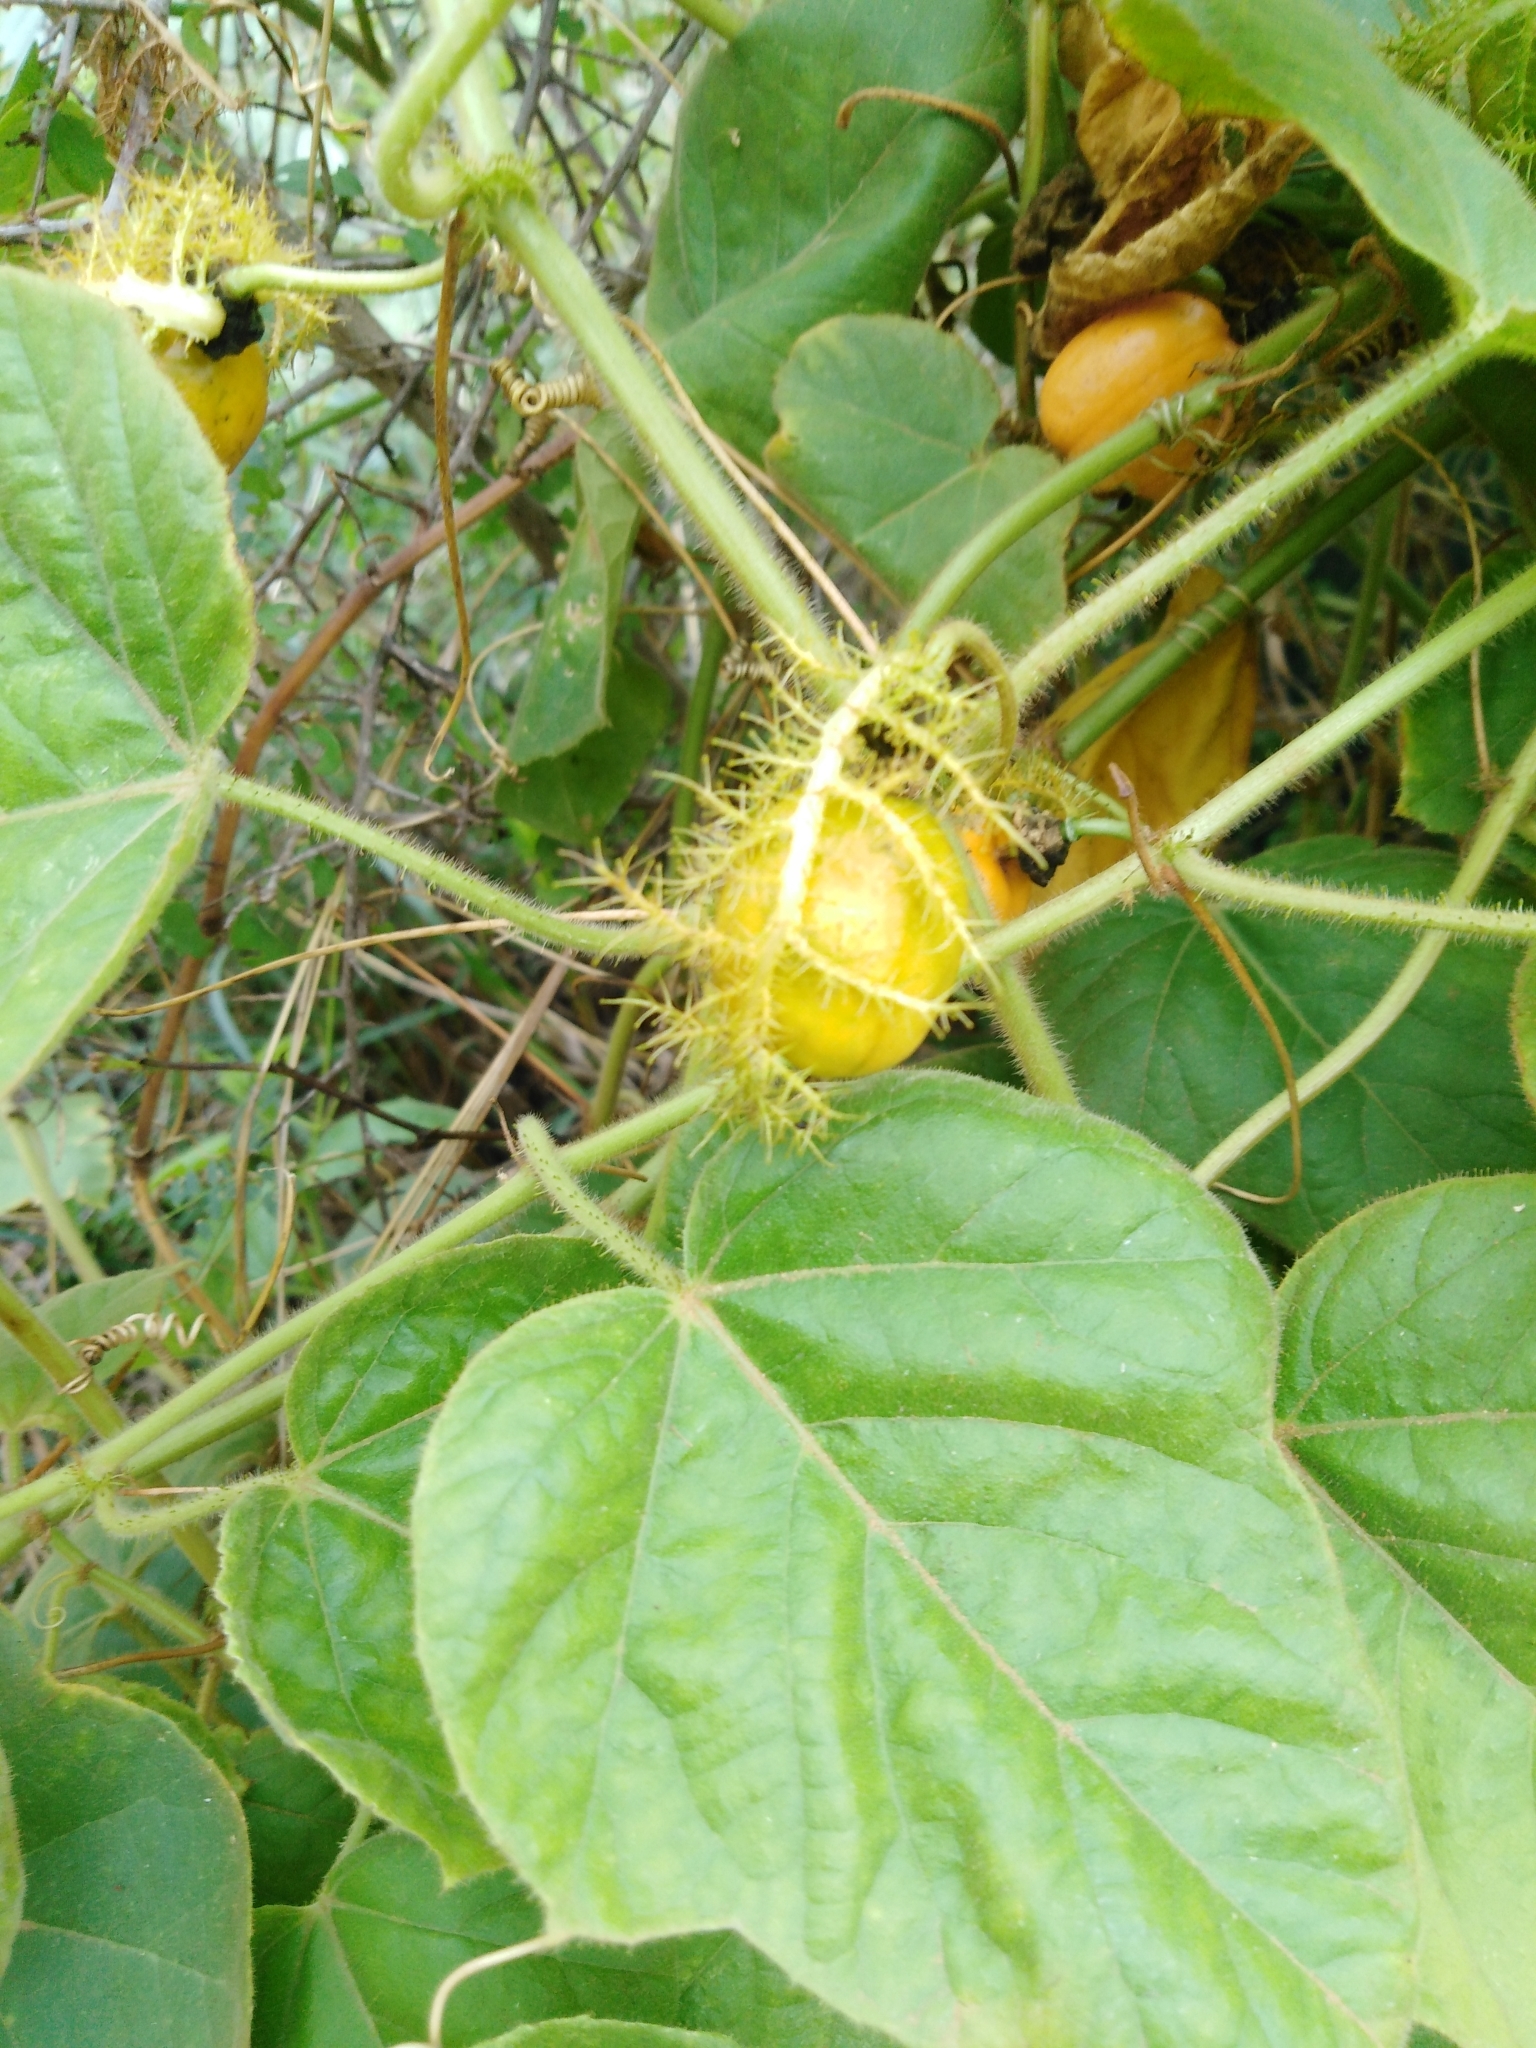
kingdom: Plantae
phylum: Tracheophyta
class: Magnoliopsida
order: Malpighiales
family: Passifloraceae
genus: Passiflora
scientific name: Passiflora foetida
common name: Fetid passionflower
